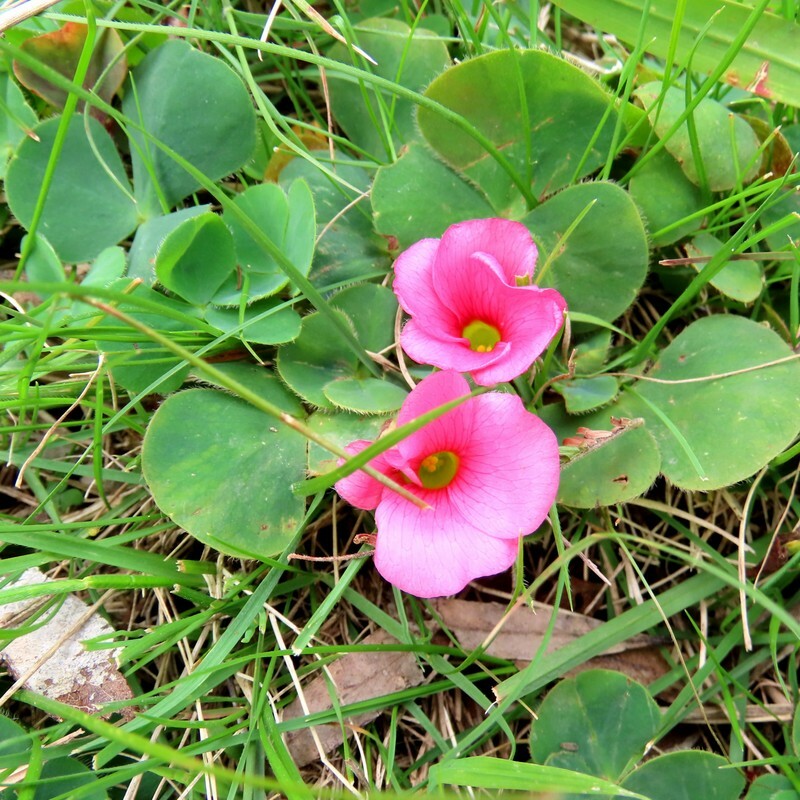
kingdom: Plantae
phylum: Tracheophyta
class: Magnoliopsida
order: Oxalidales
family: Oxalidaceae
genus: Oxalis
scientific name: Oxalis purpurea
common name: Purple woodsorrel
